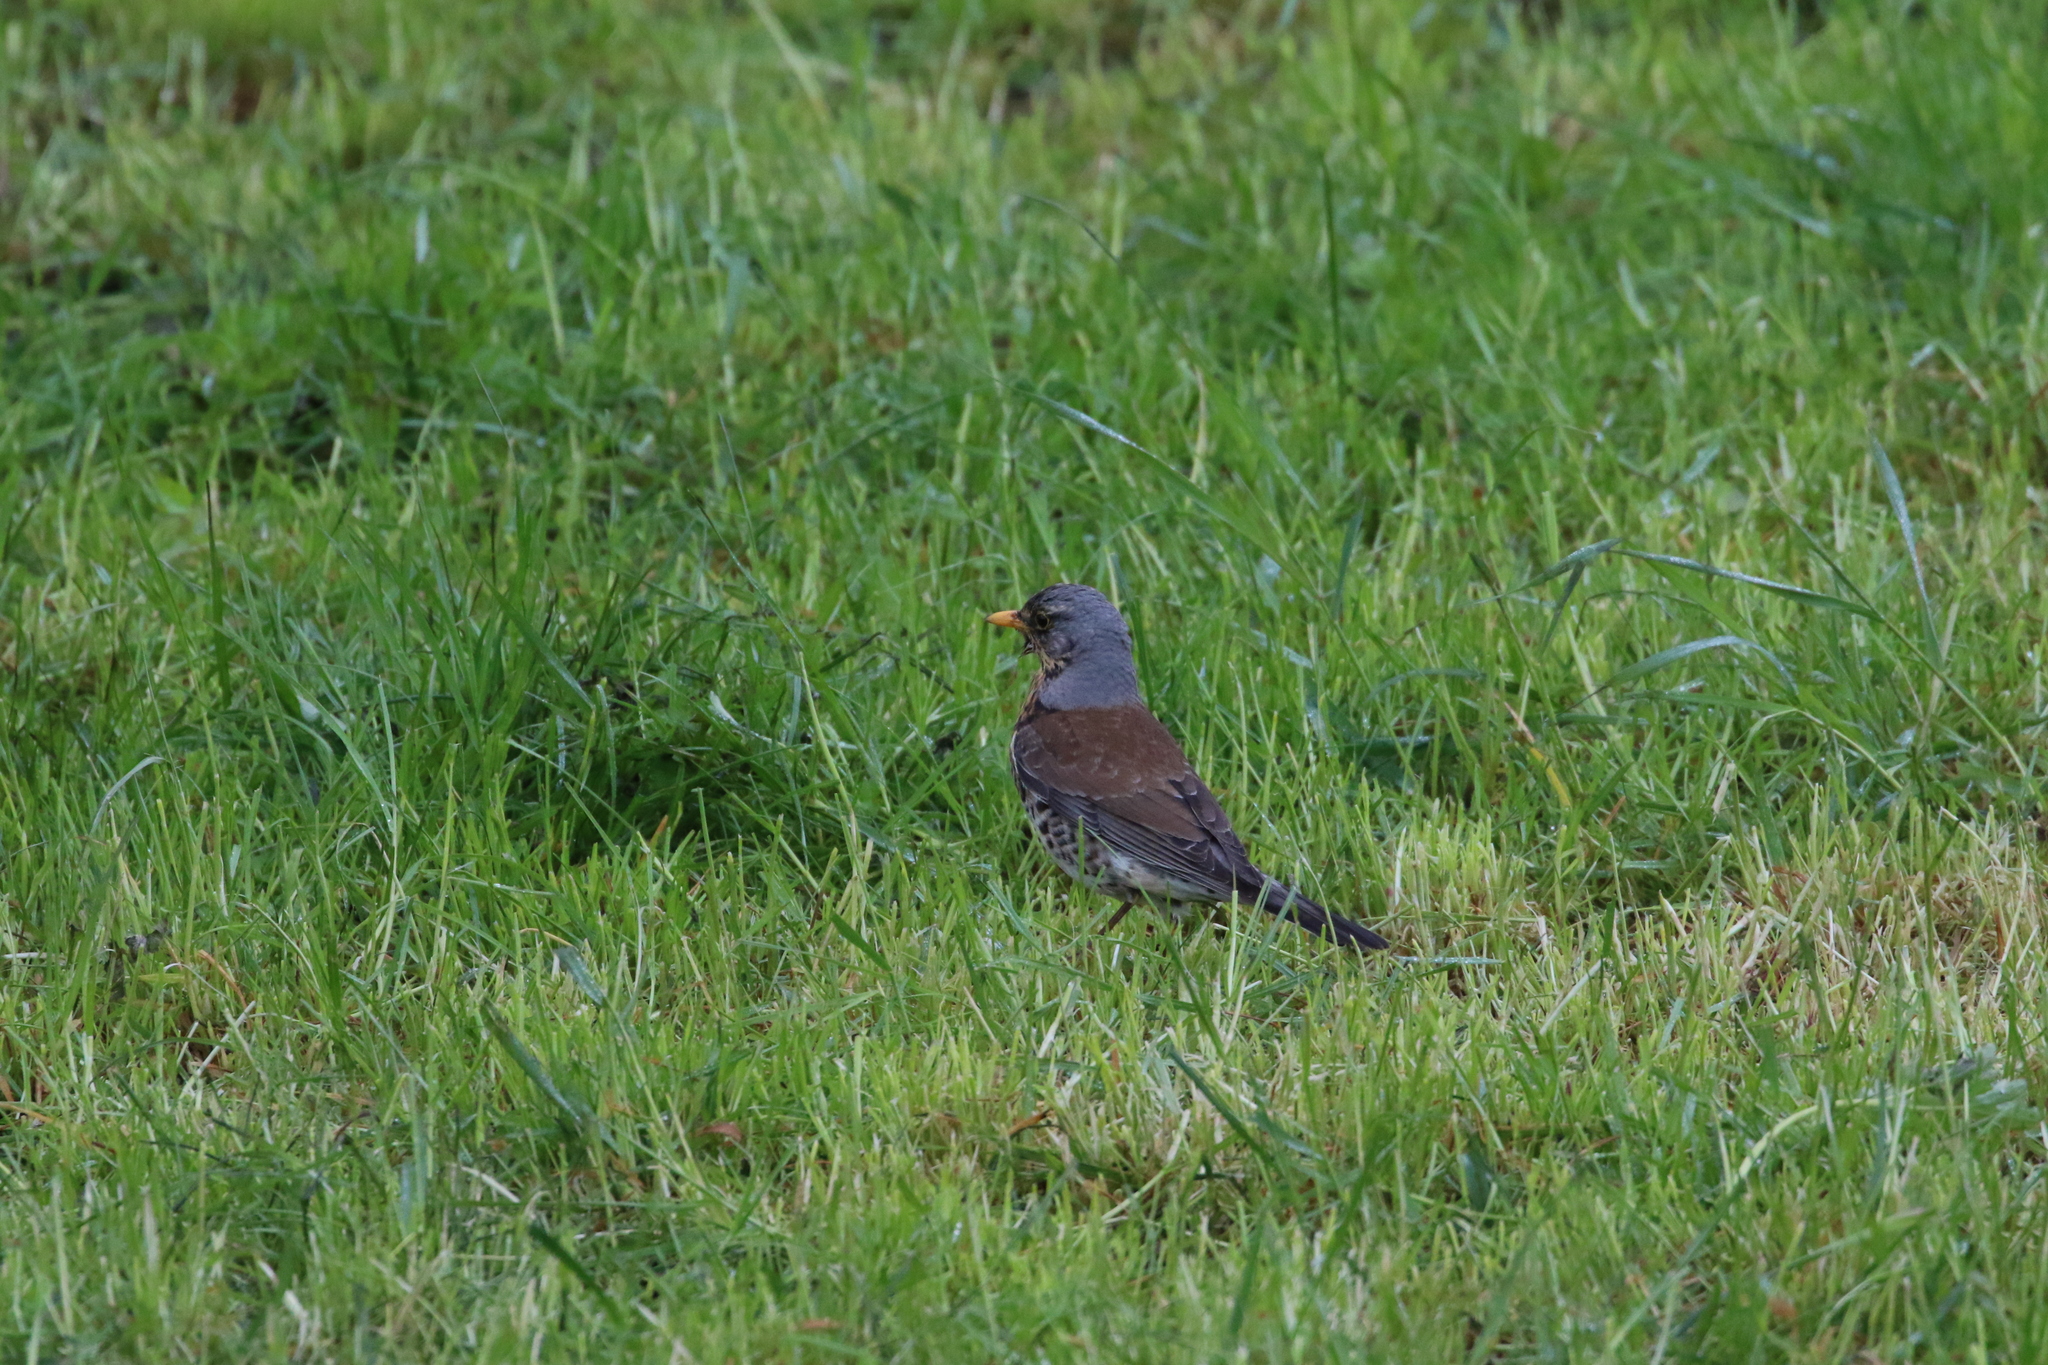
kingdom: Animalia
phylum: Chordata
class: Aves
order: Passeriformes
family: Turdidae
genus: Turdus
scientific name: Turdus pilaris
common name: Fieldfare
